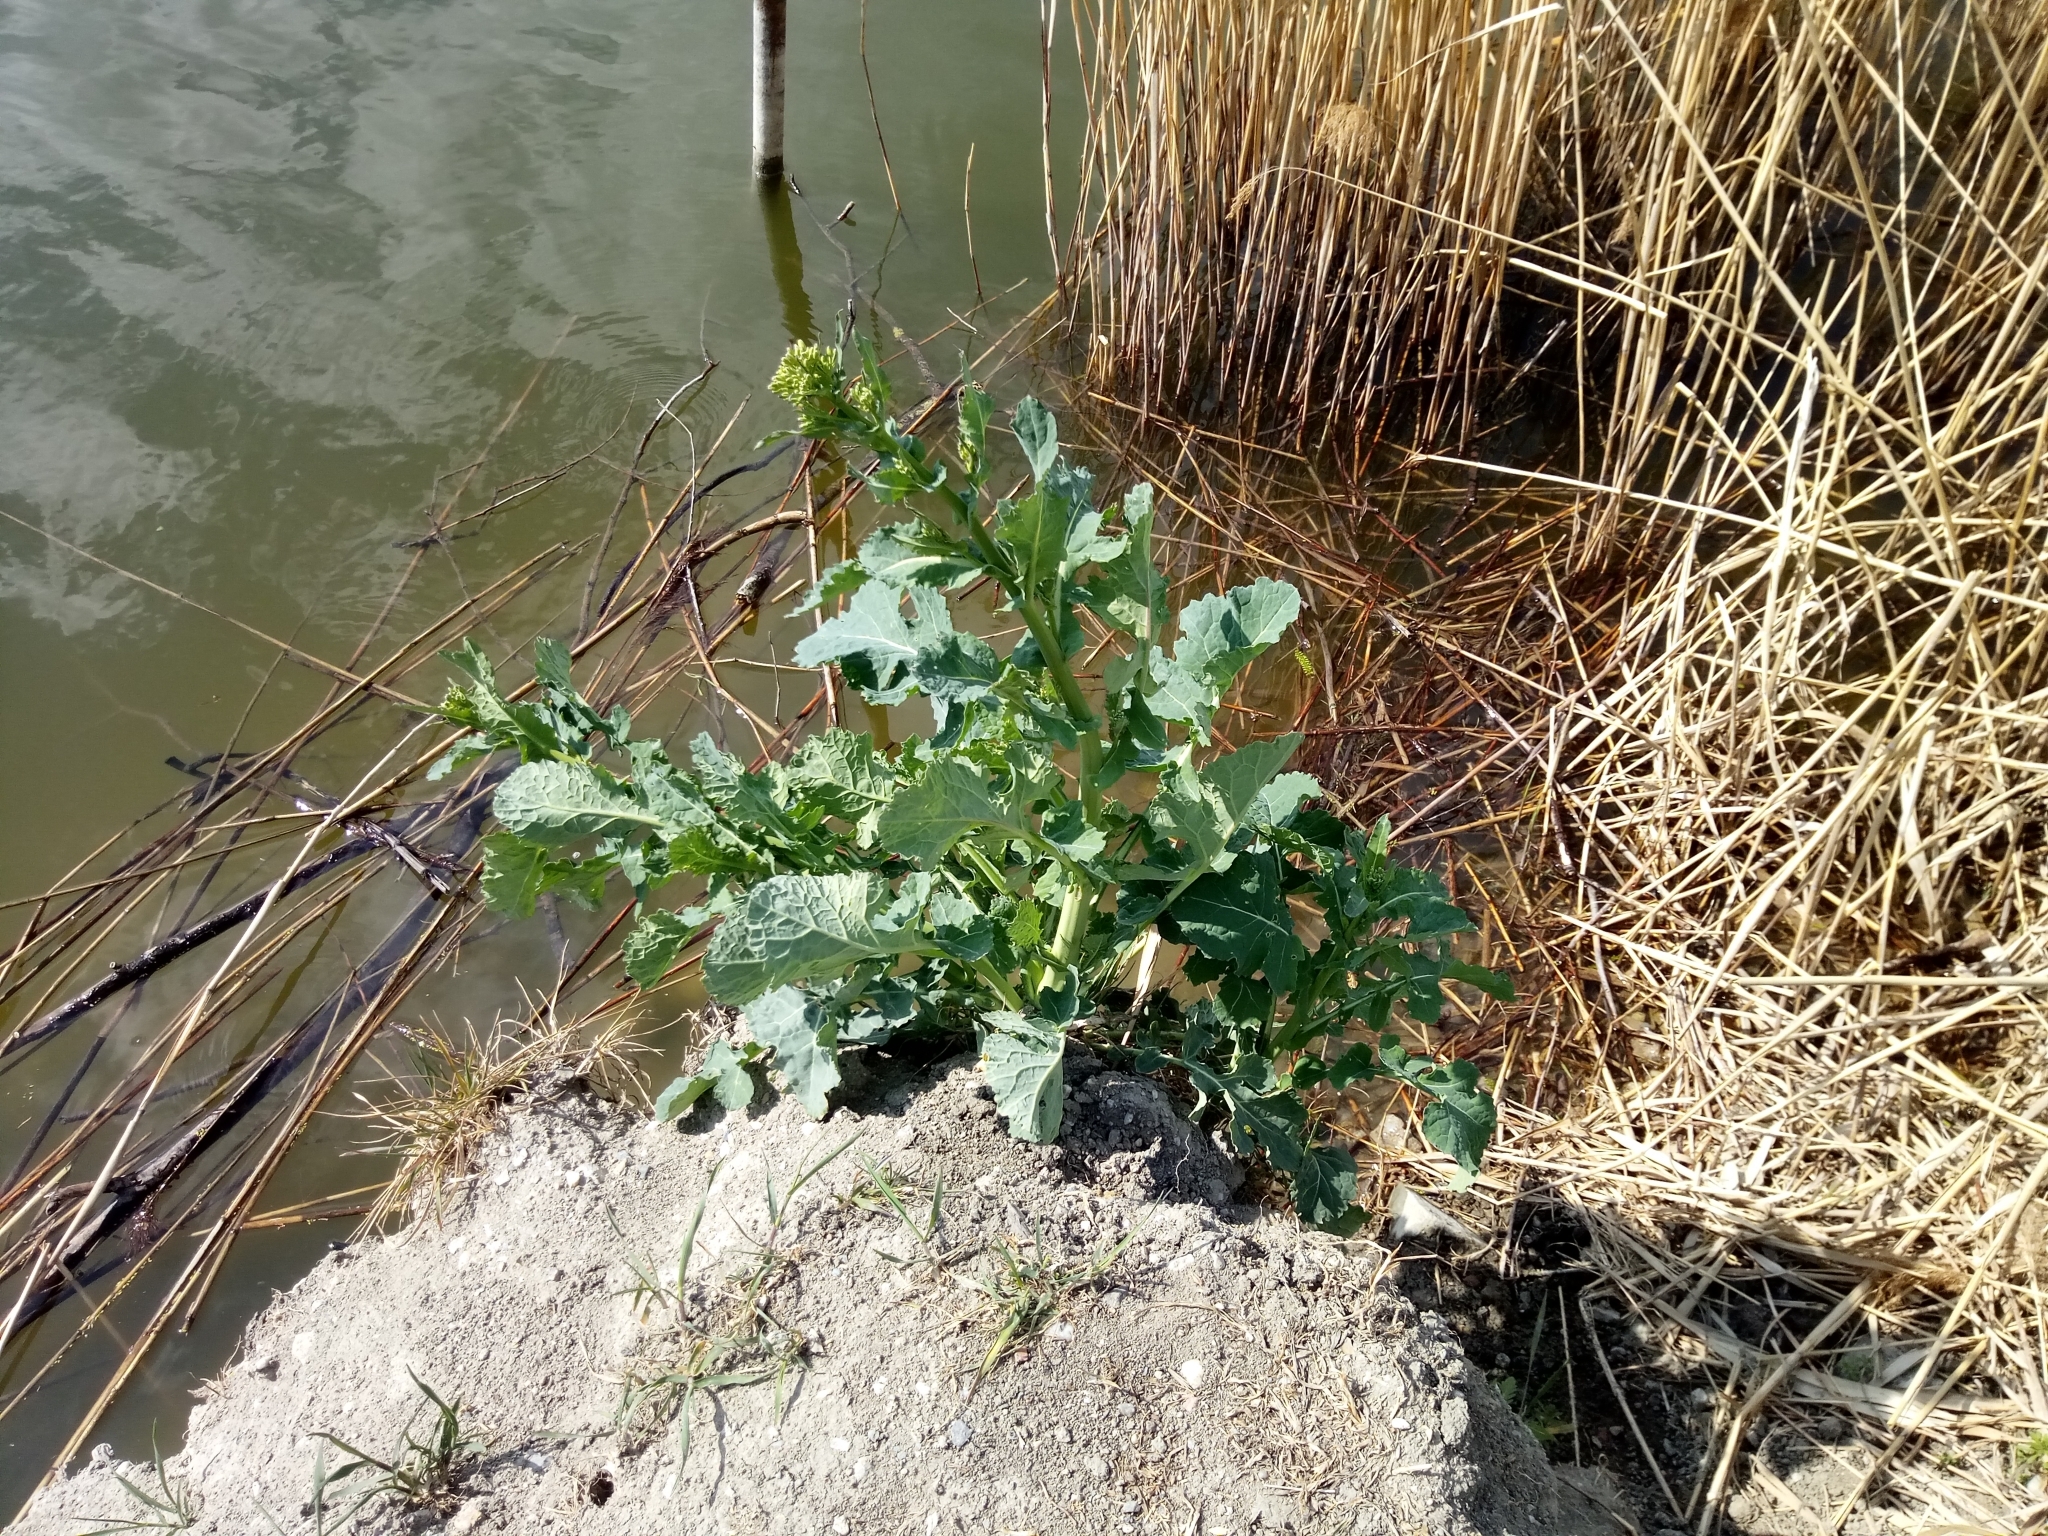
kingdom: Plantae
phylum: Tracheophyta
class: Magnoliopsida
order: Brassicales
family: Brassicaceae
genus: Brassica
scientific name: Brassica napus
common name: Rape
